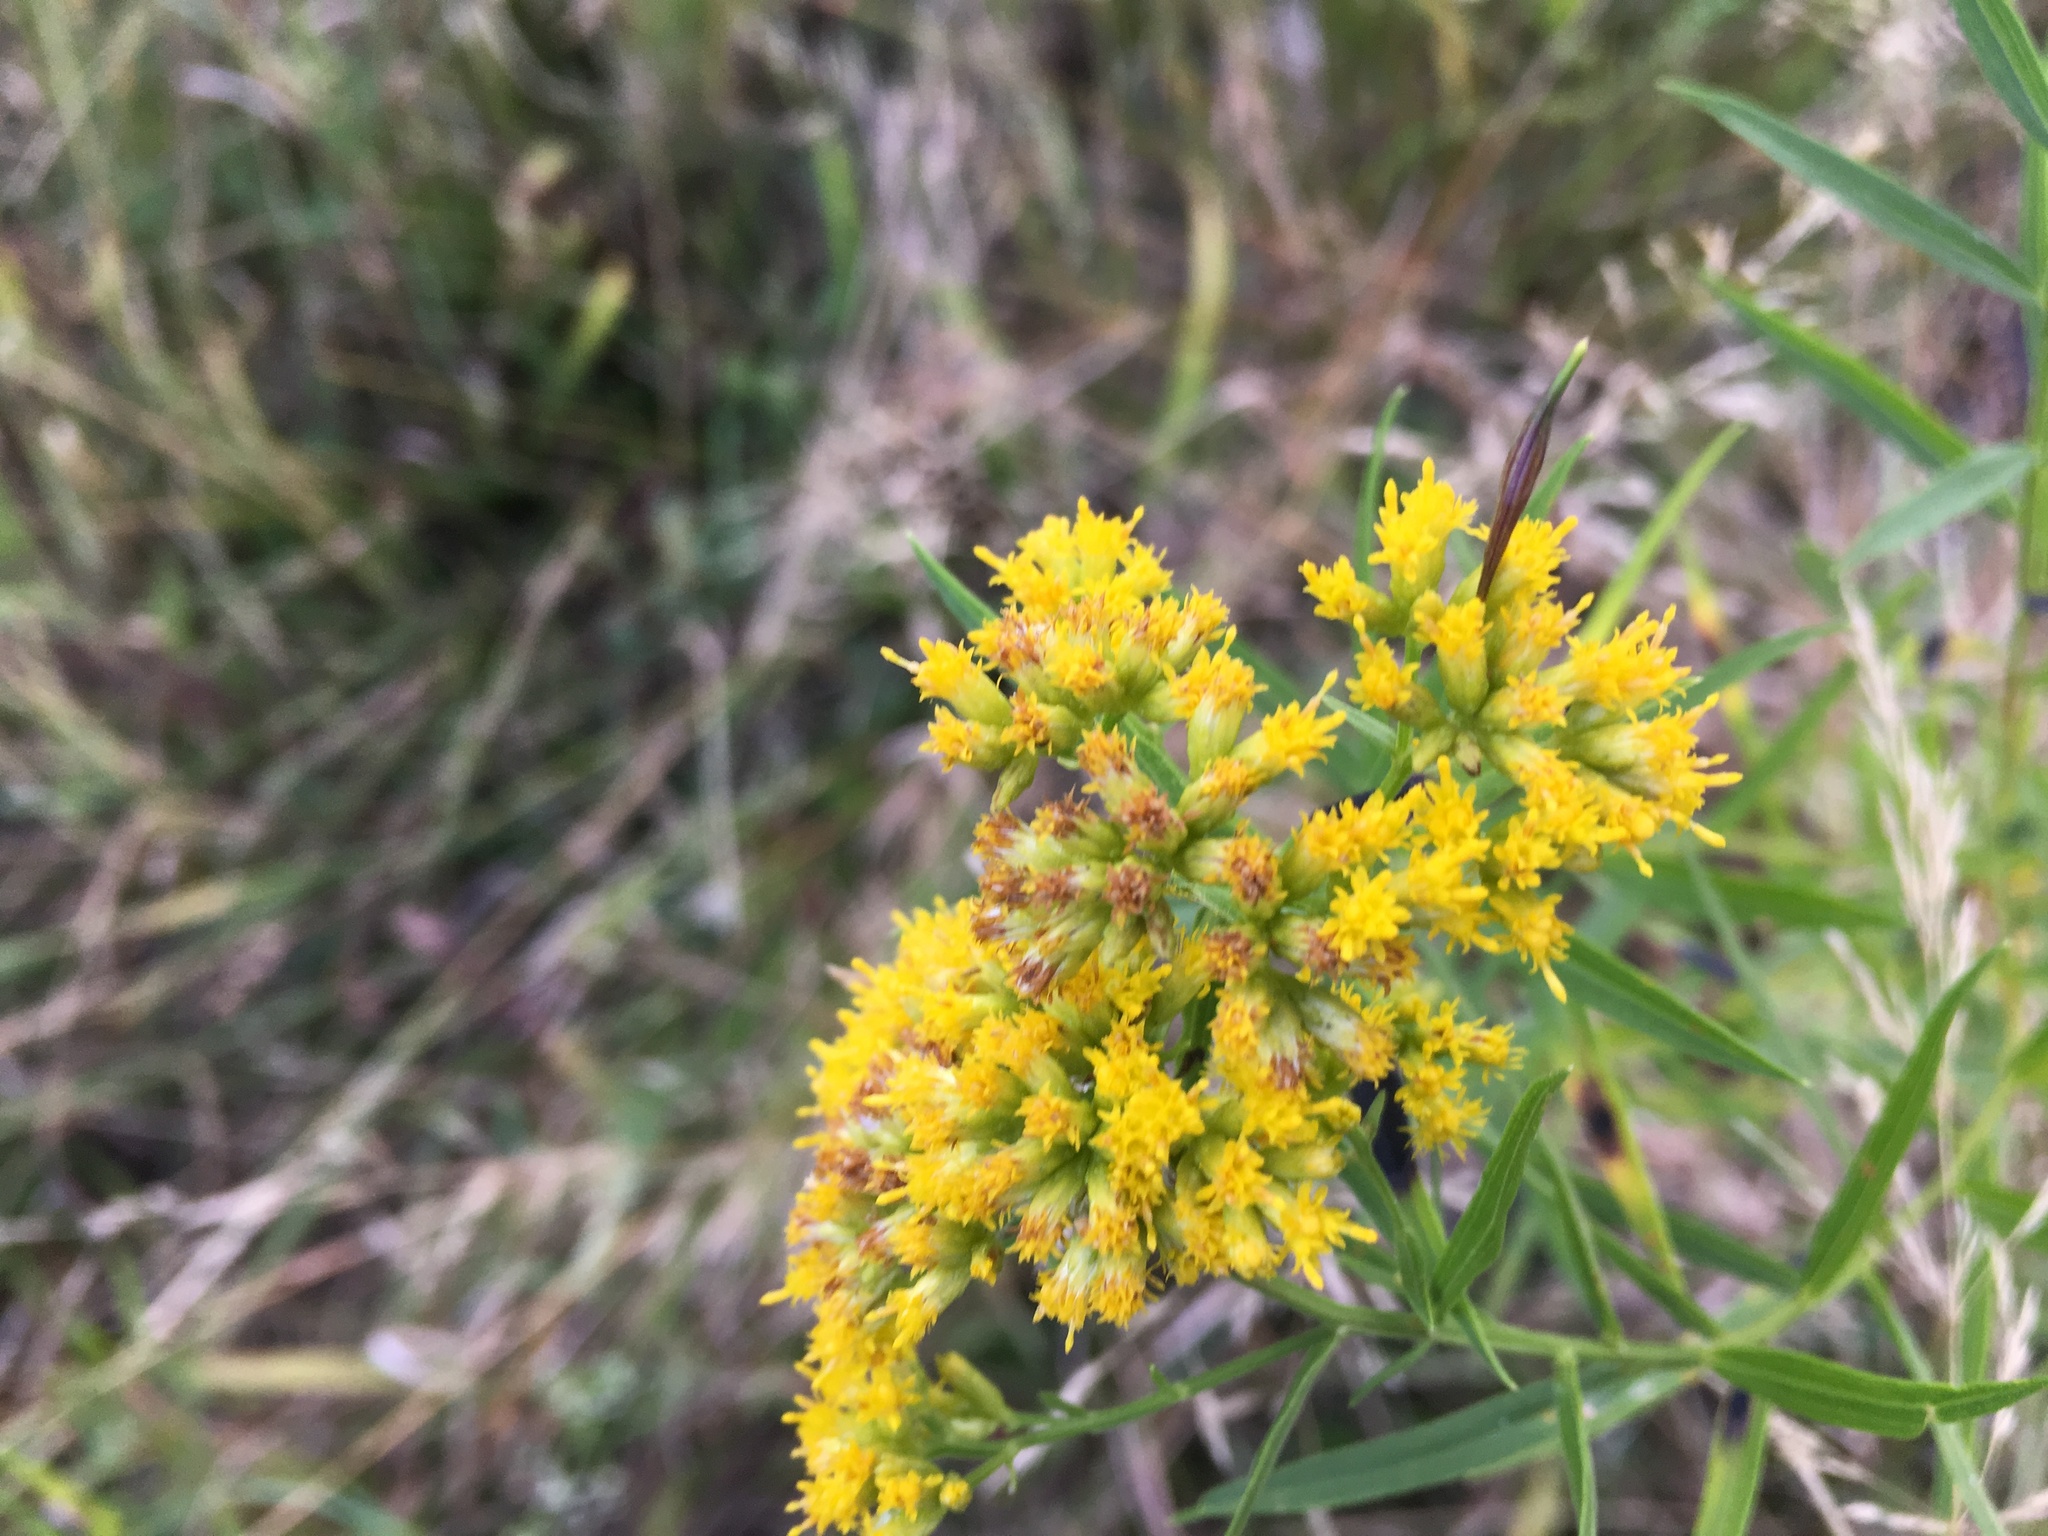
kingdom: Animalia
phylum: Arthropoda
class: Insecta
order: Diptera
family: Cecidomyiidae
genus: Rhopalomyia
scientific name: Rhopalomyia pedicellata
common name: Goldentop pedicellate gall midge
